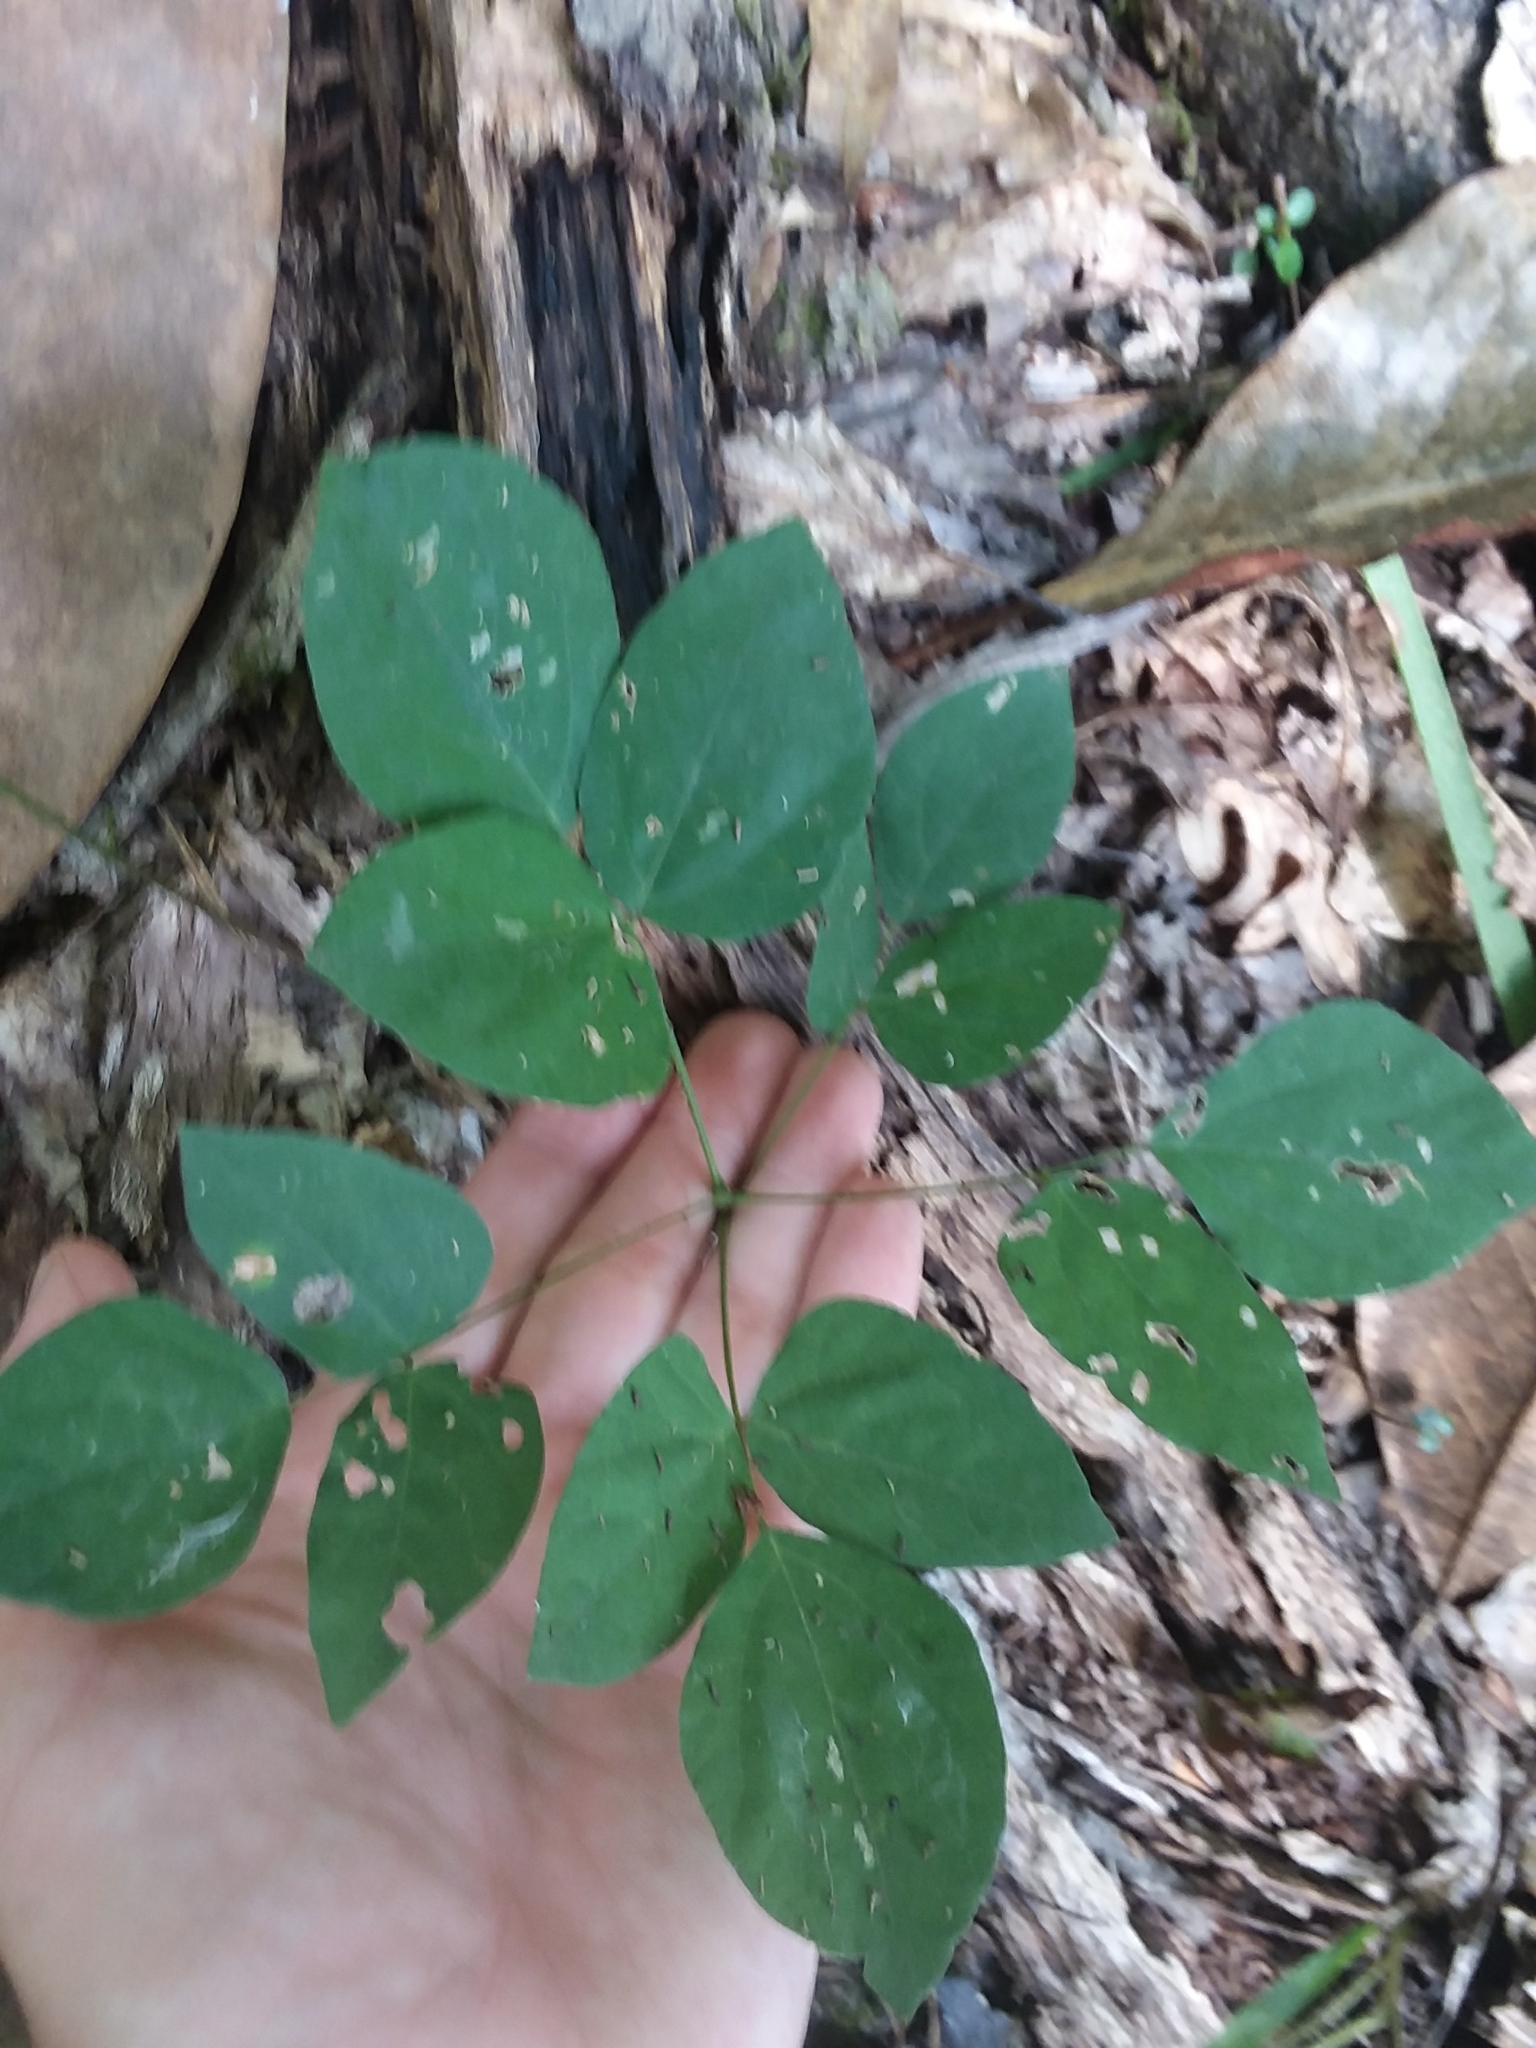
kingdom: Plantae
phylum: Tracheophyta
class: Magnoliopsida
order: Fabales
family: Fabaceae
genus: Hylodesmum
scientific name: Hylodesmum nudiflorum
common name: Bare-stemmed tick-trefoil
